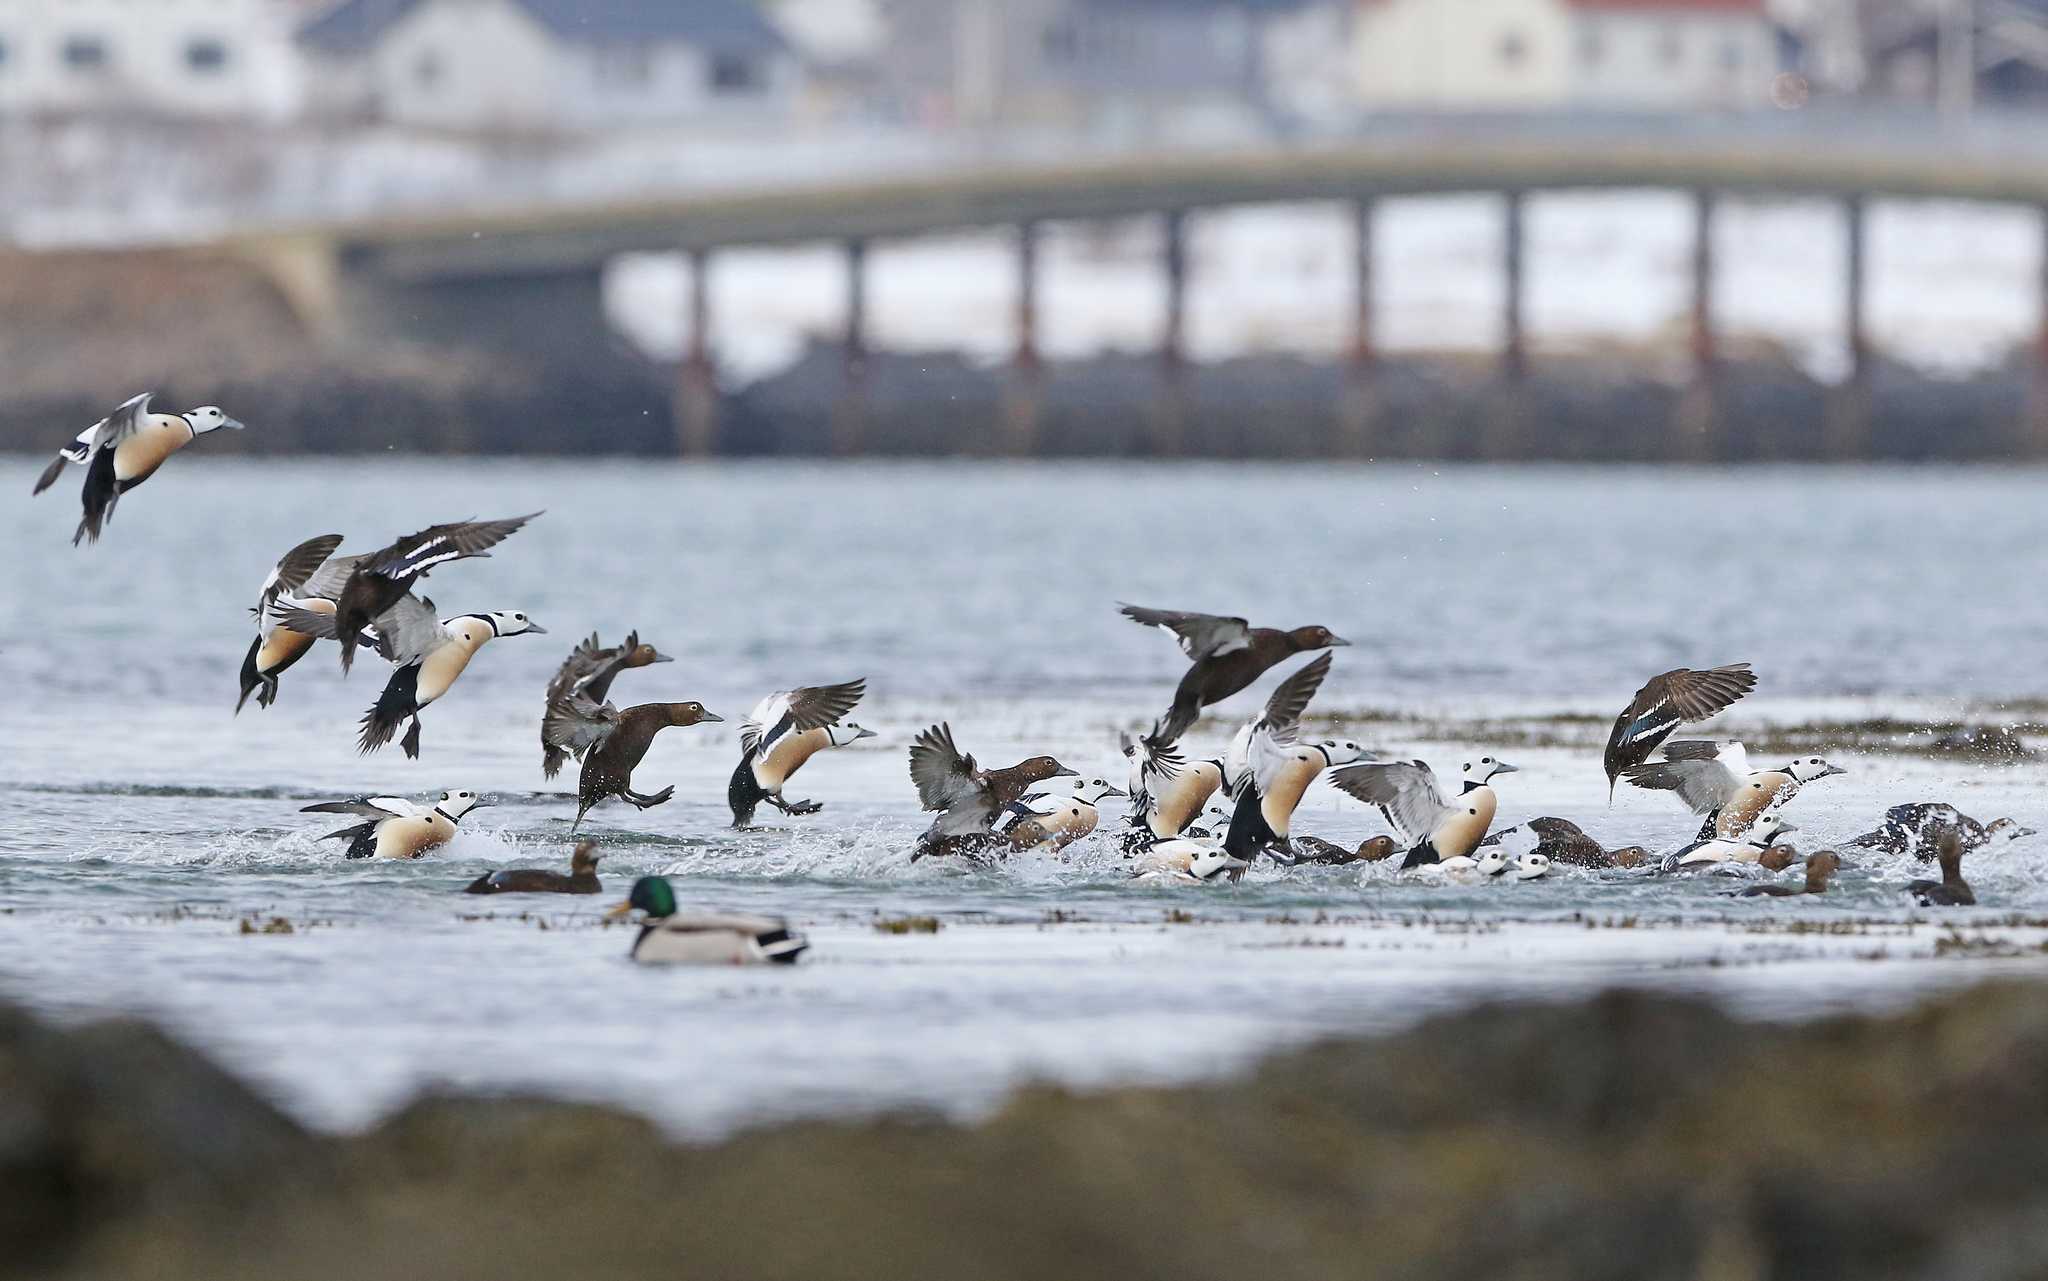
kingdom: Animalia
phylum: Chordata
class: Aves
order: Anseriformes
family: Anatidae
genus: Polysticta
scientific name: Polysticta stelleri
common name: Steller's eider
